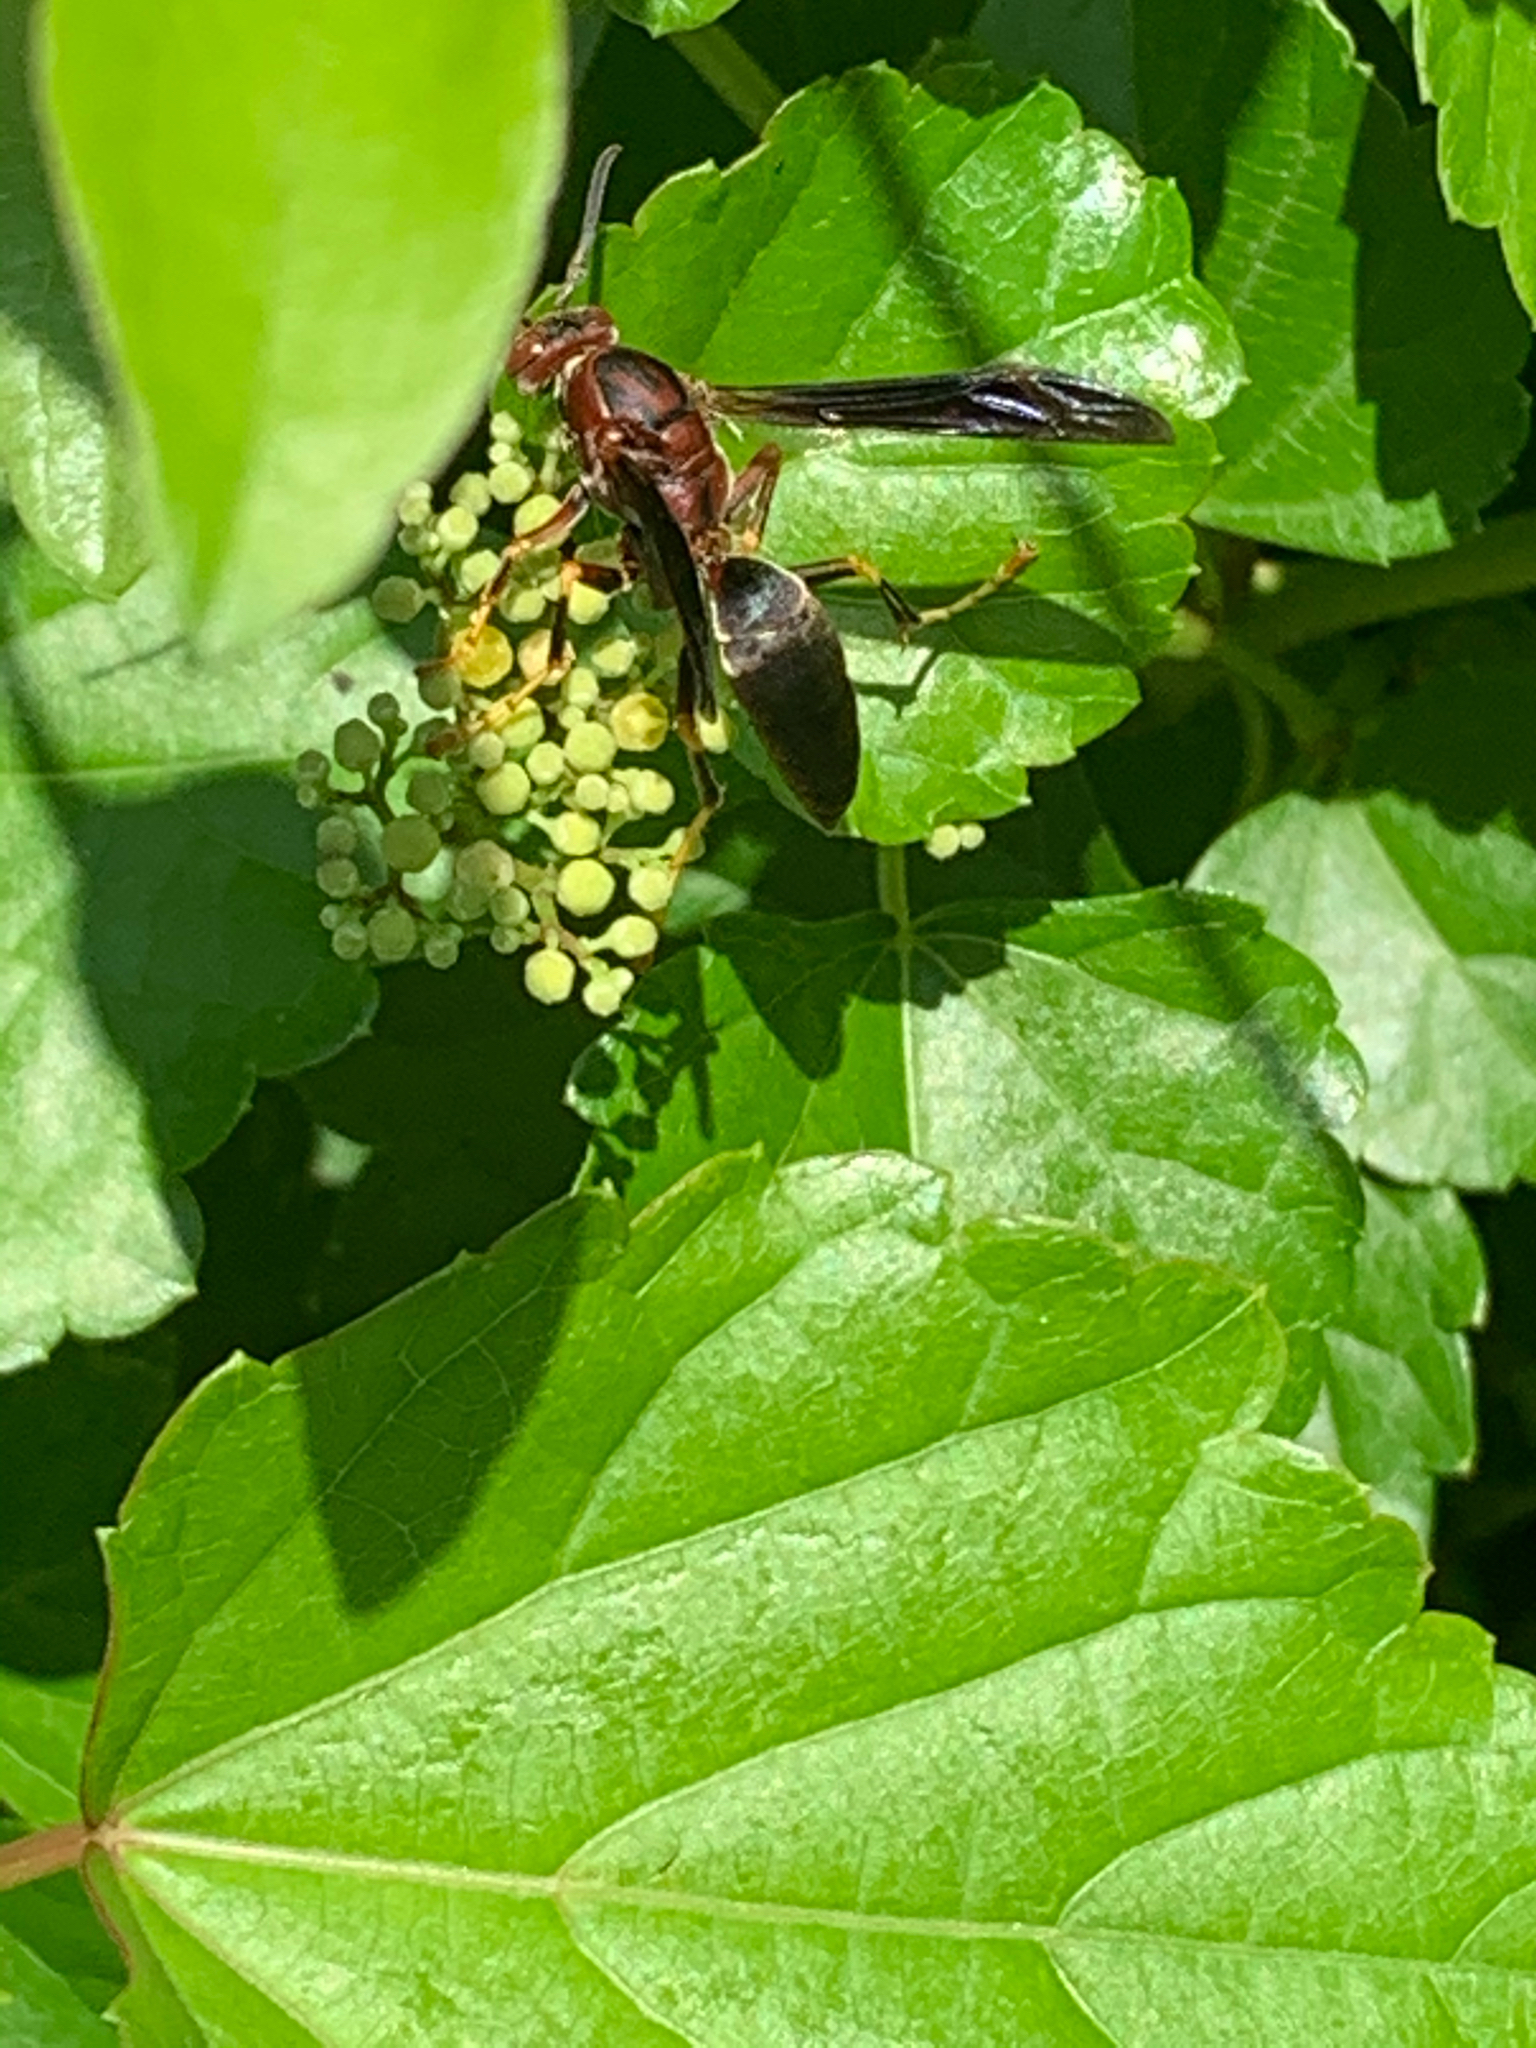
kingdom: Animalia
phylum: Arthropoda
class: Insecta
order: Hymenoptera
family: Eumenidae
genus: Polistes
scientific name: Polistes metricus
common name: Metric paper wasp
